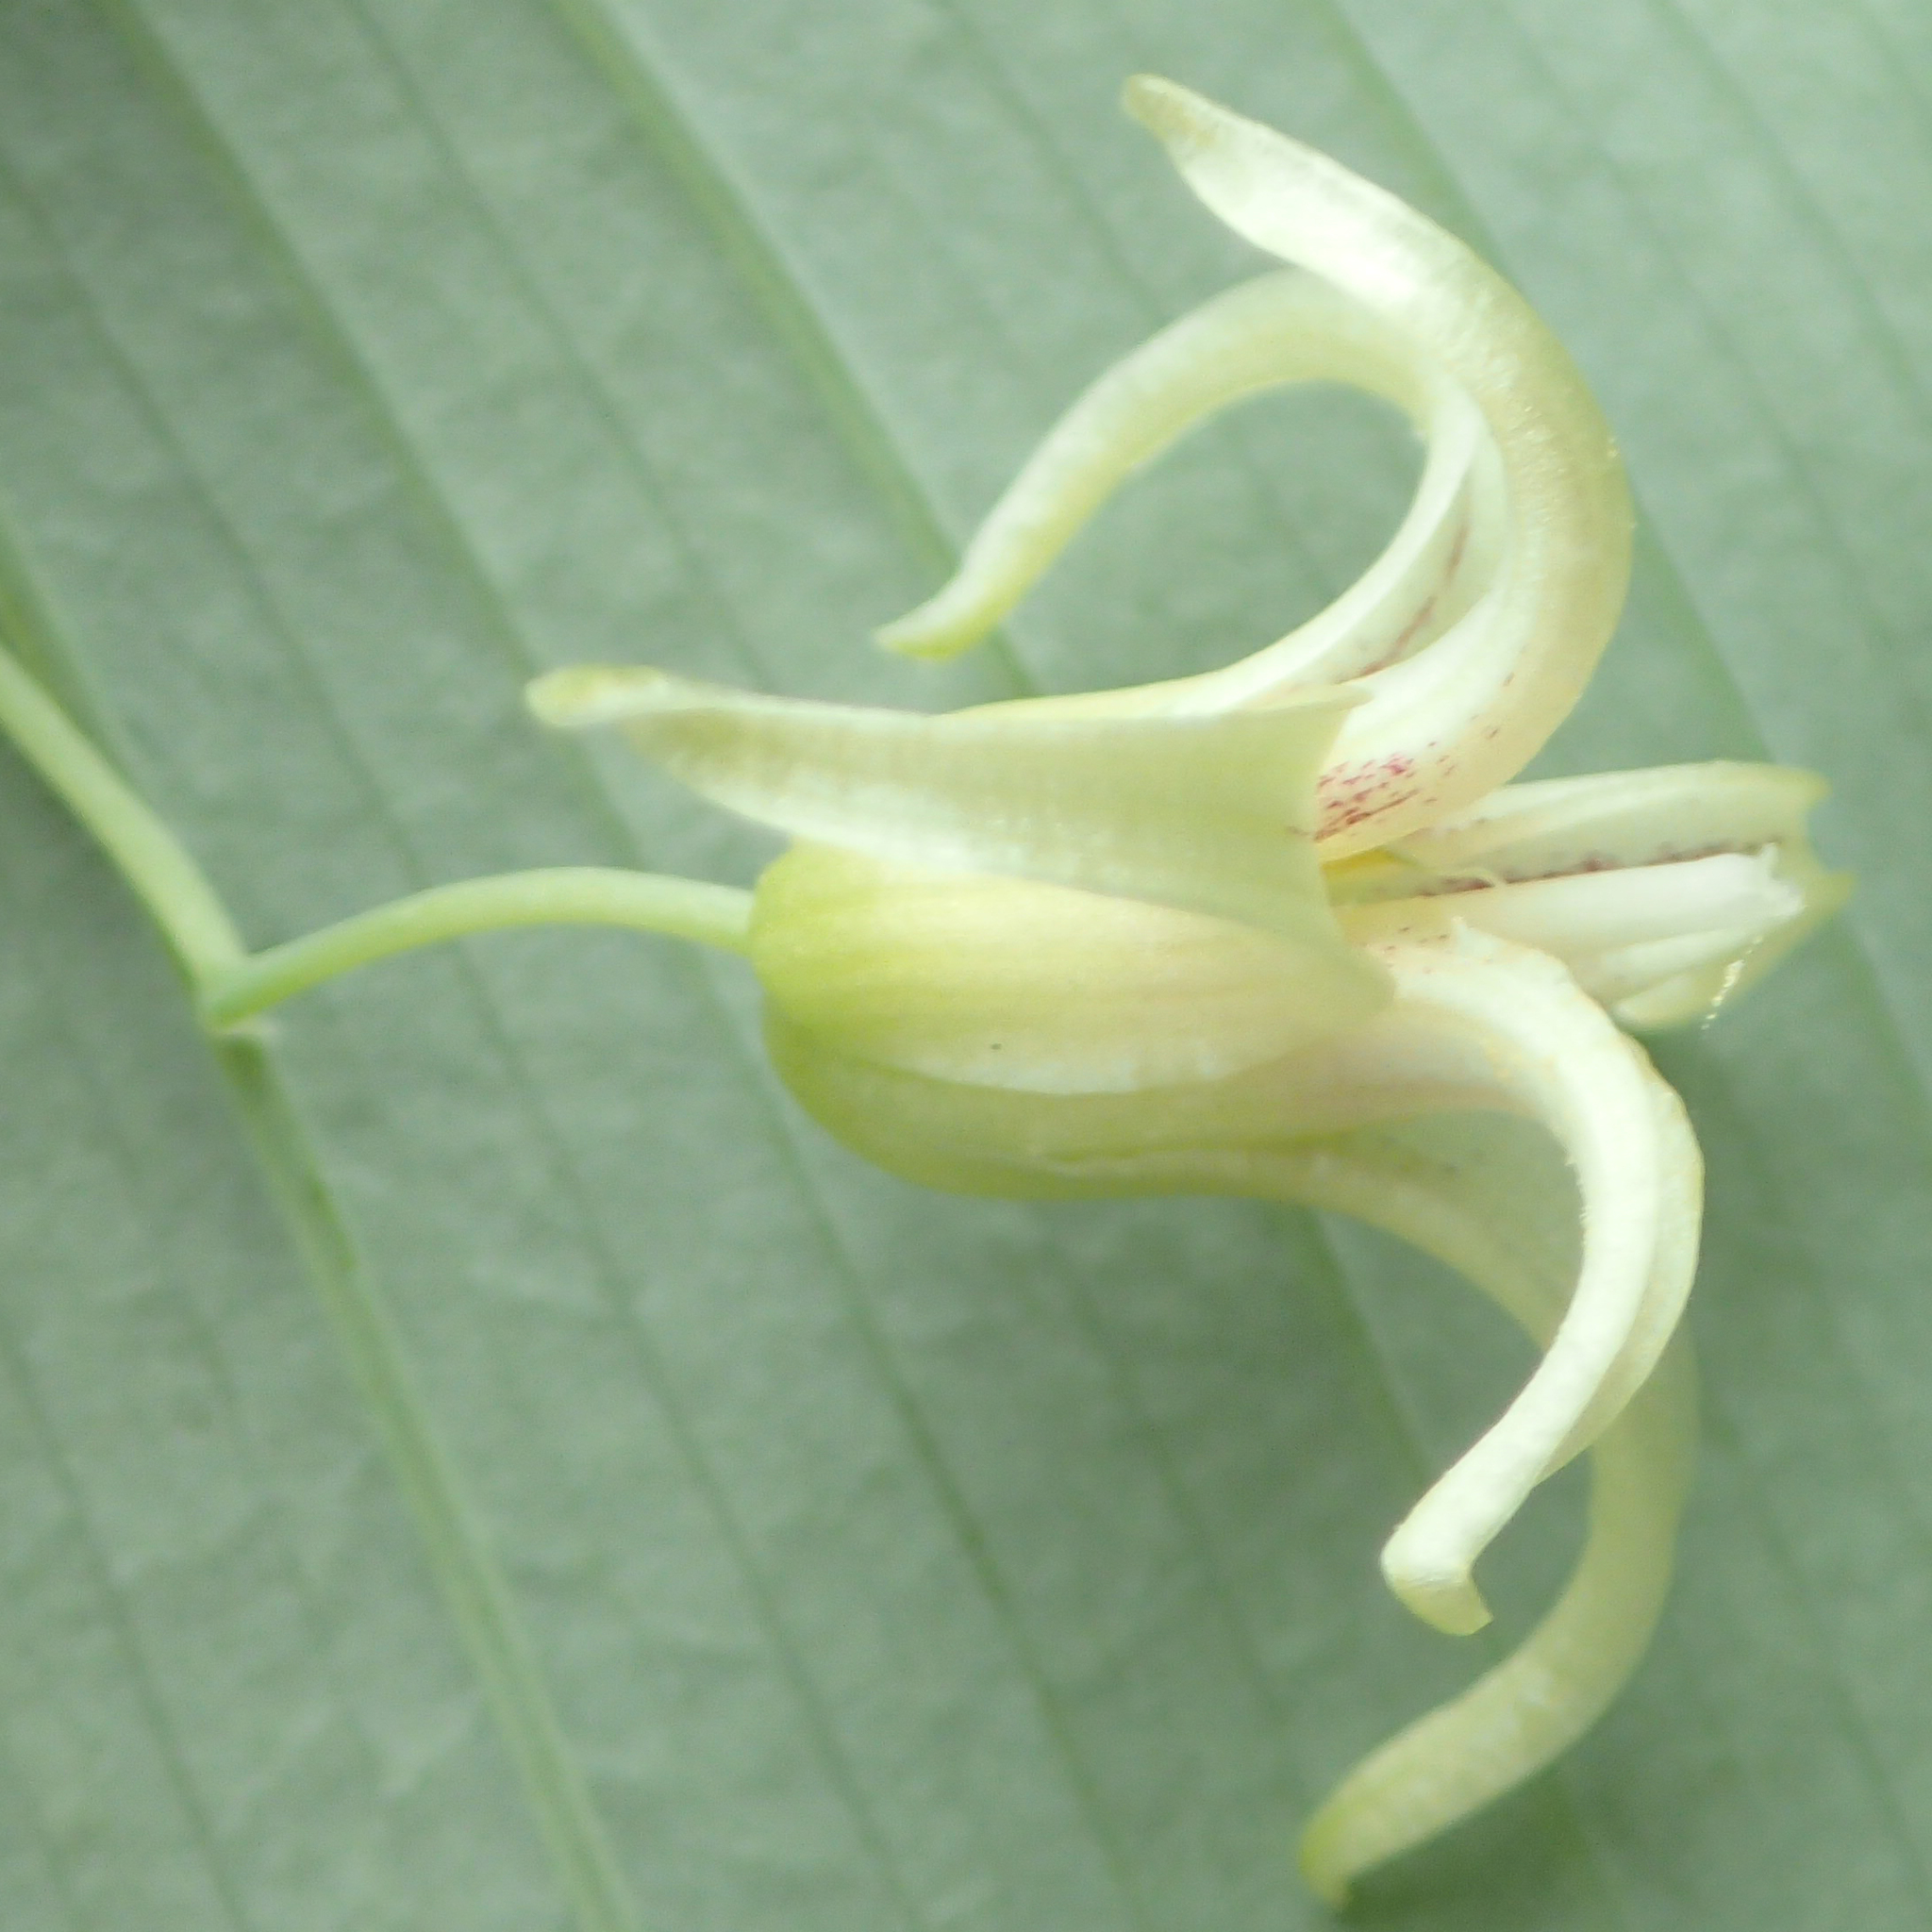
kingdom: Plantae
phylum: Tracheophyta
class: Liliopsida
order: Liliales
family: Liliaceae
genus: Streptopus
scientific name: Streptopus amplexifolius
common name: Clasp twisted stalk
